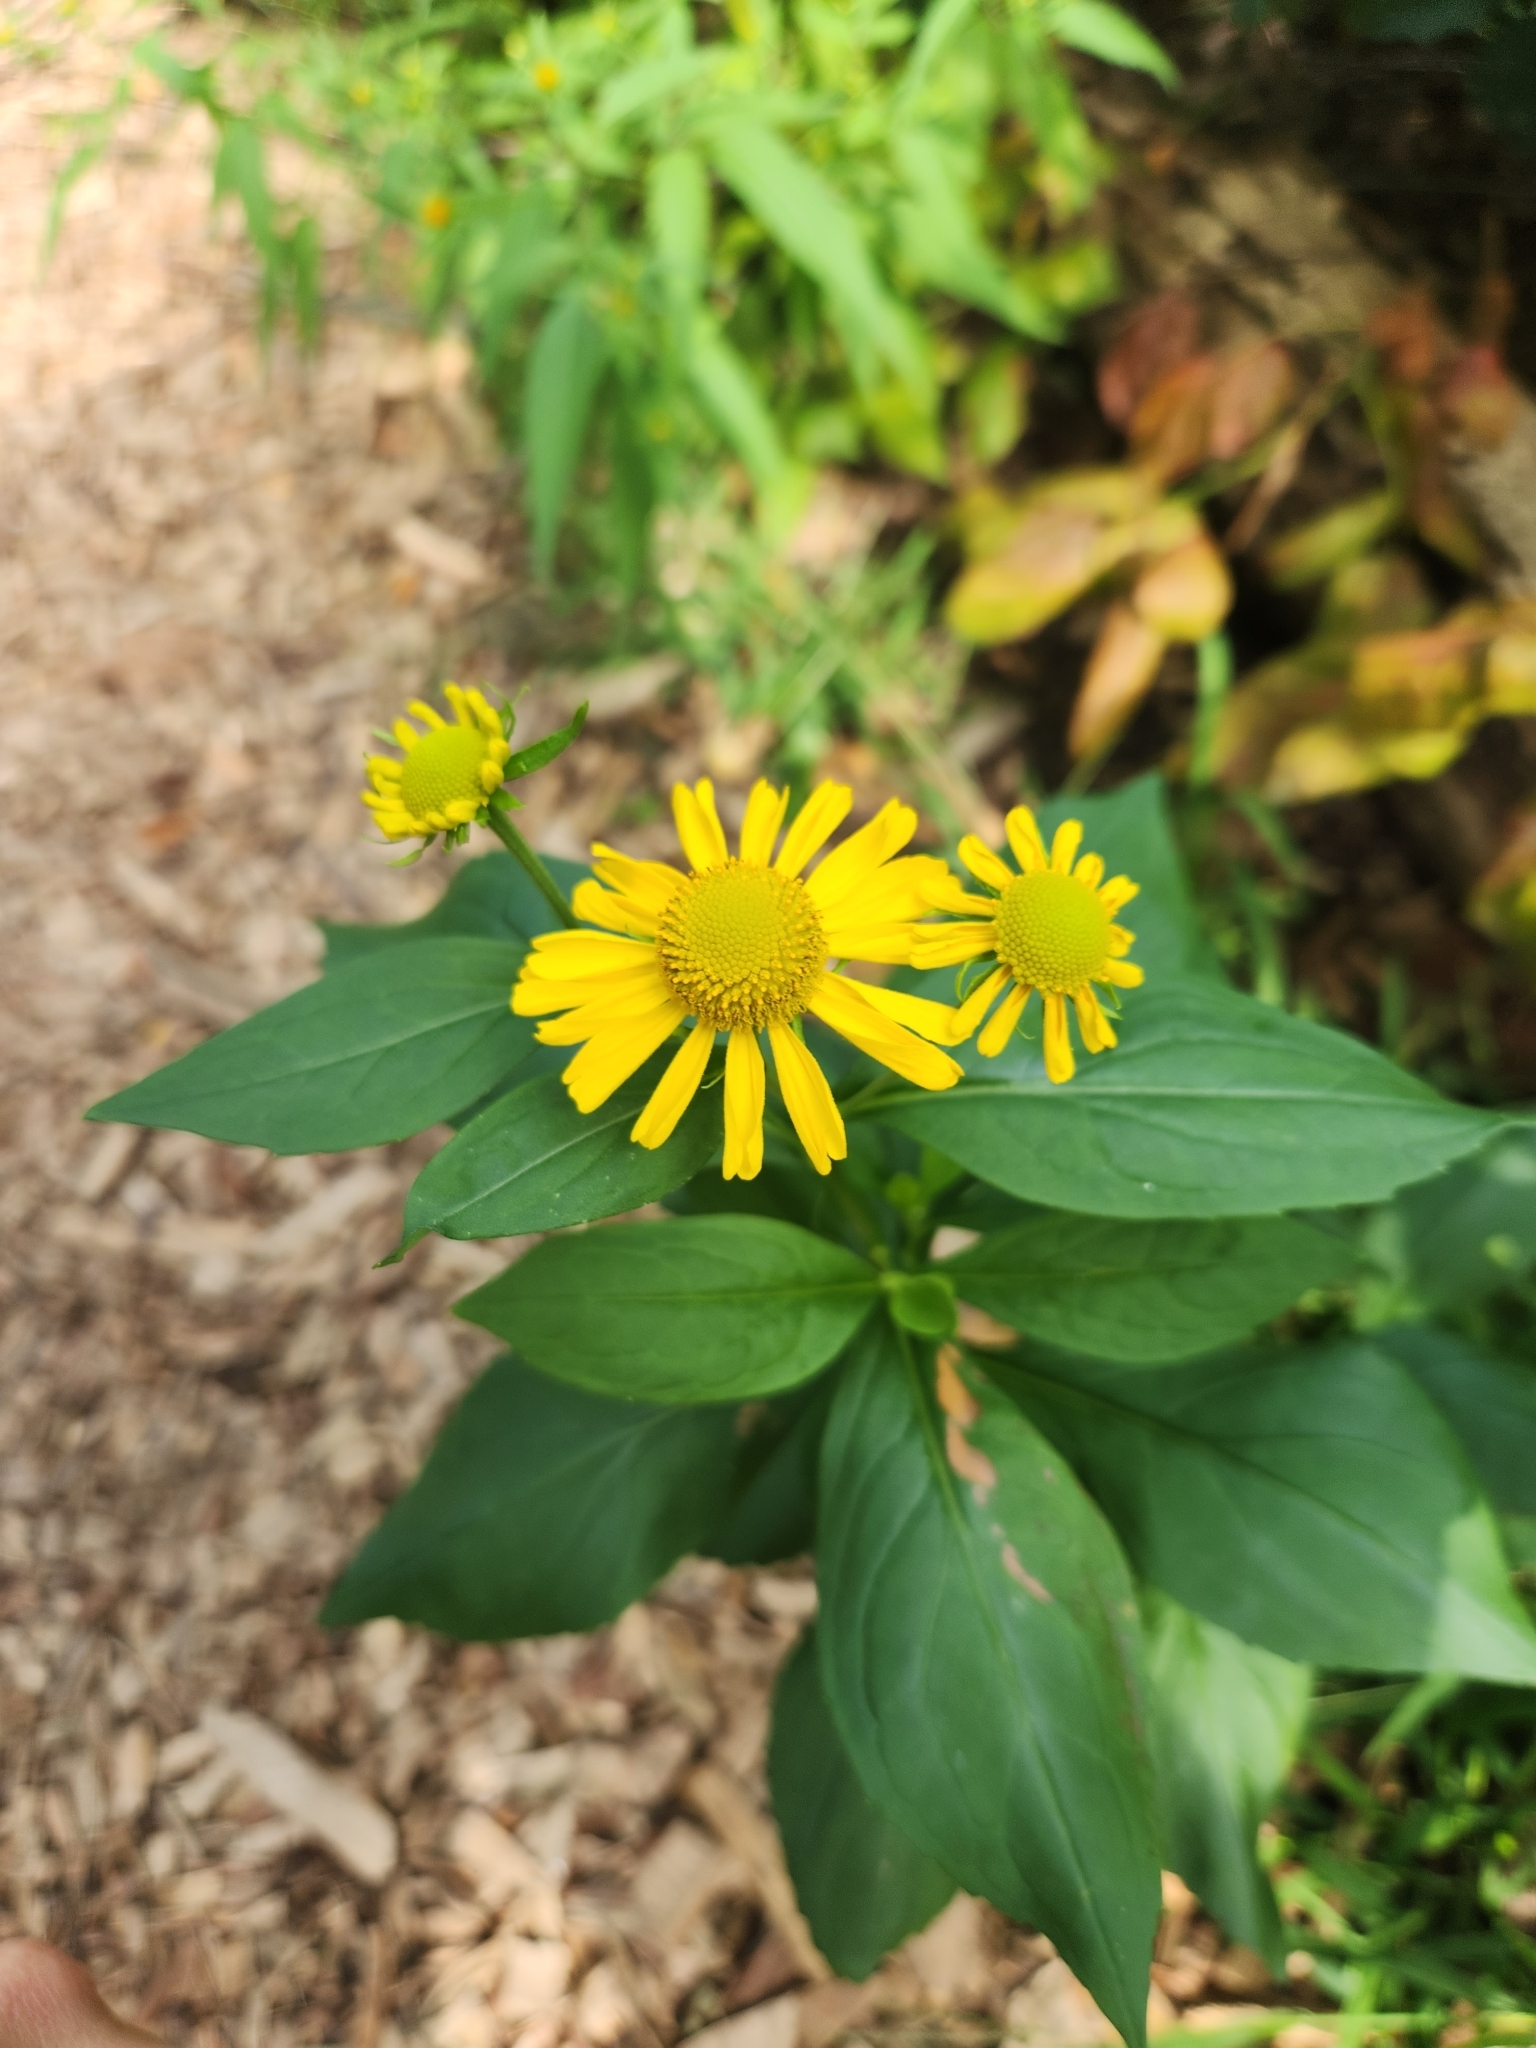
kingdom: Plantae
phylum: Tracheophyta
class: Magnoliopsida
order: Asterales
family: Asteraceae
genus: Helenium
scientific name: Helenium autumnale
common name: Sneezeweed
